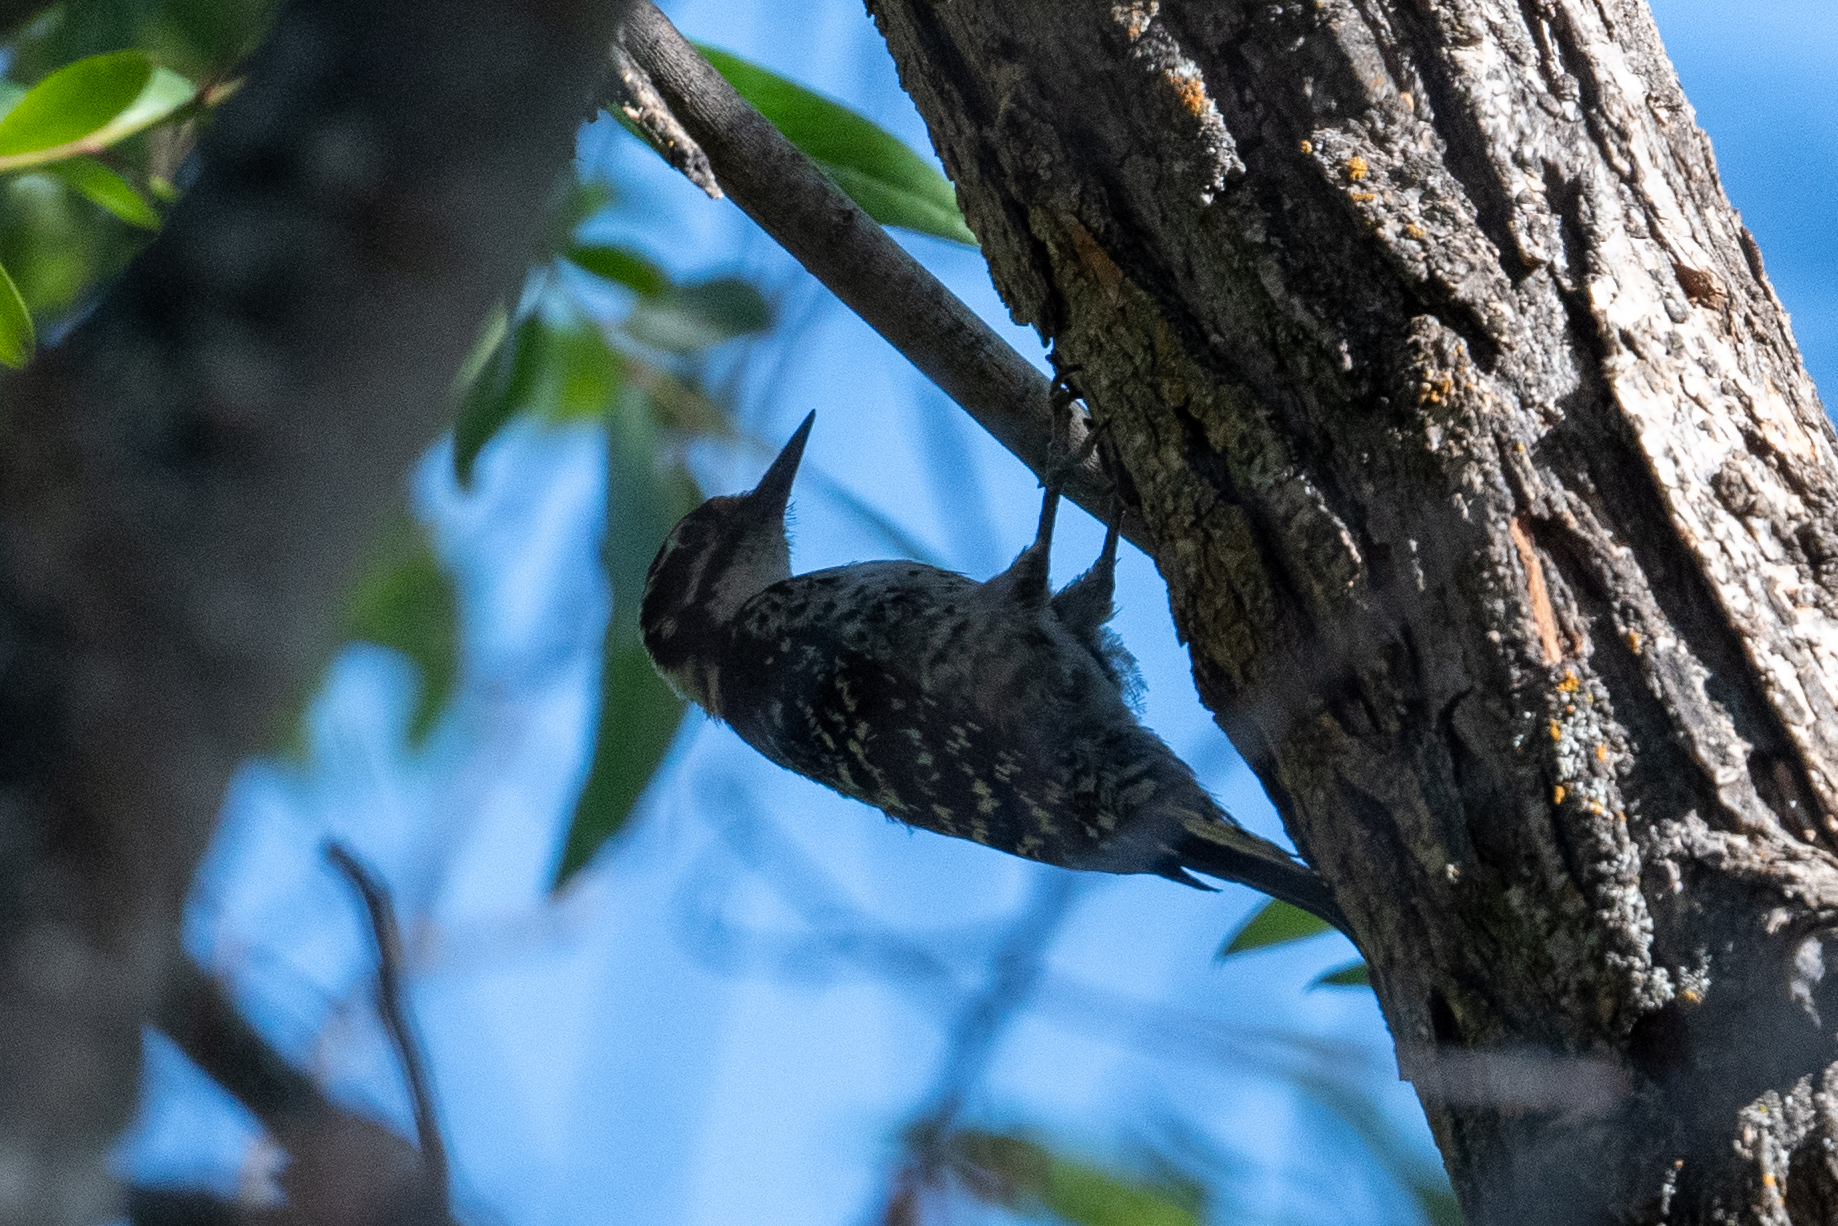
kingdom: Animalia
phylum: Chordata
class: Aves
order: Piciformes
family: Picidae
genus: Dryobates
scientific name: Dryobates nuttallii
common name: Nuttall's woodpecker
